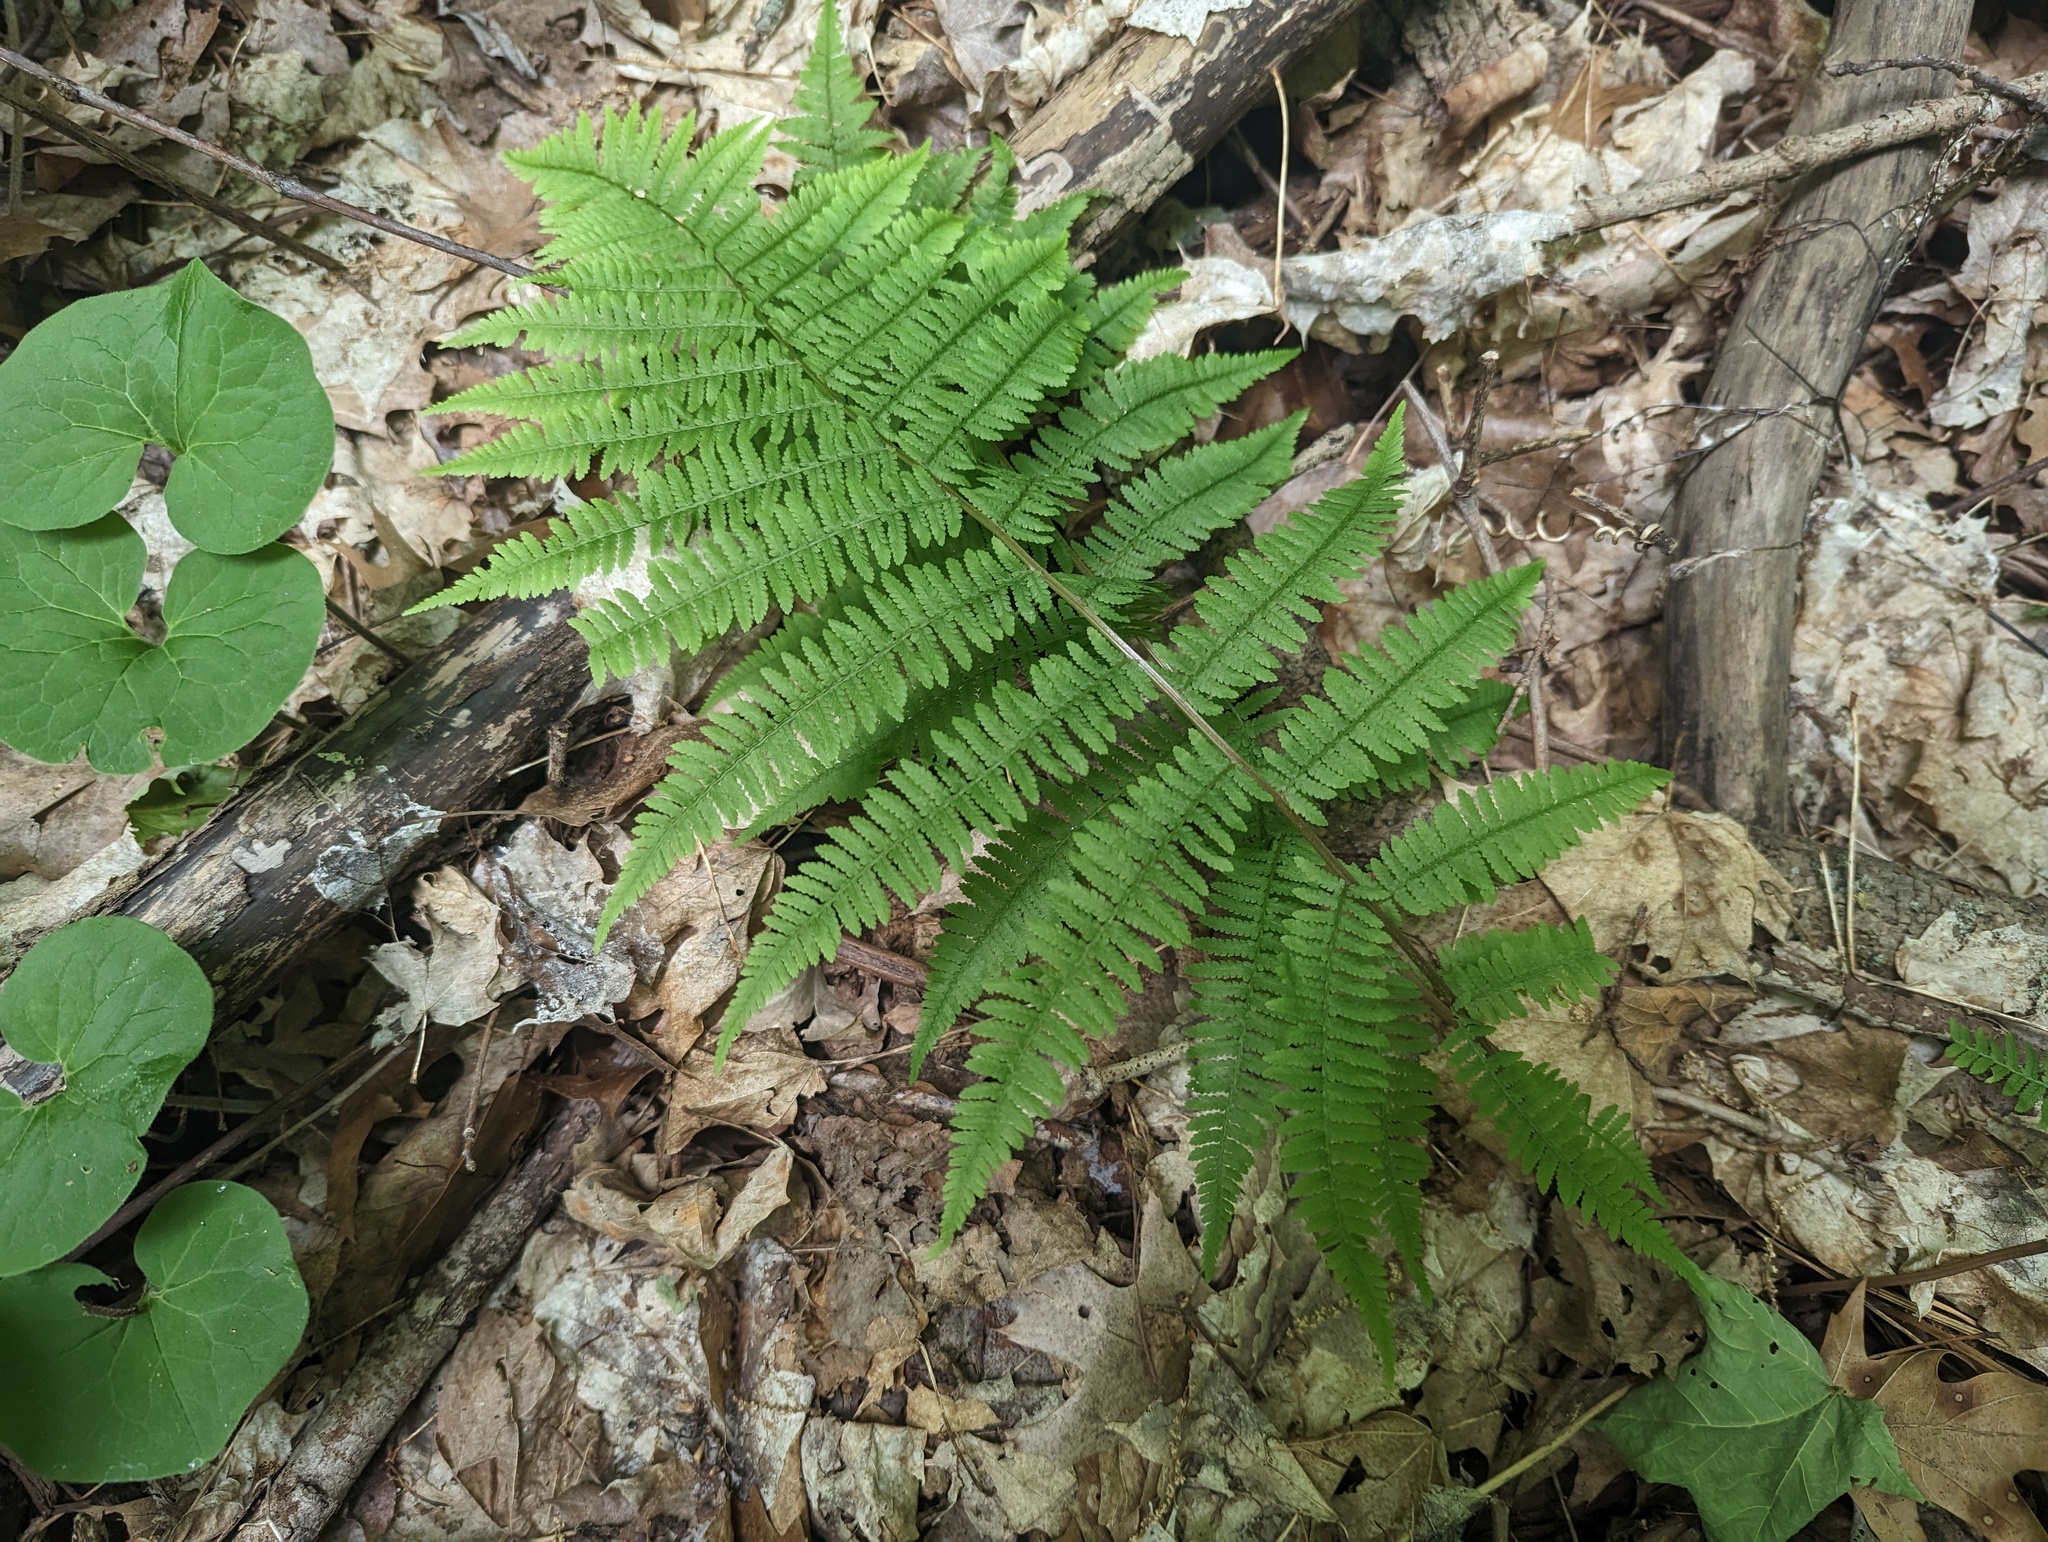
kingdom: Plantae
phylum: Tracheophyta
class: Polypodiopsida
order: Polypodiales
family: Athyriaceae
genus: Athyrium
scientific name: Athyrium angustum
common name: Northern lady fern
